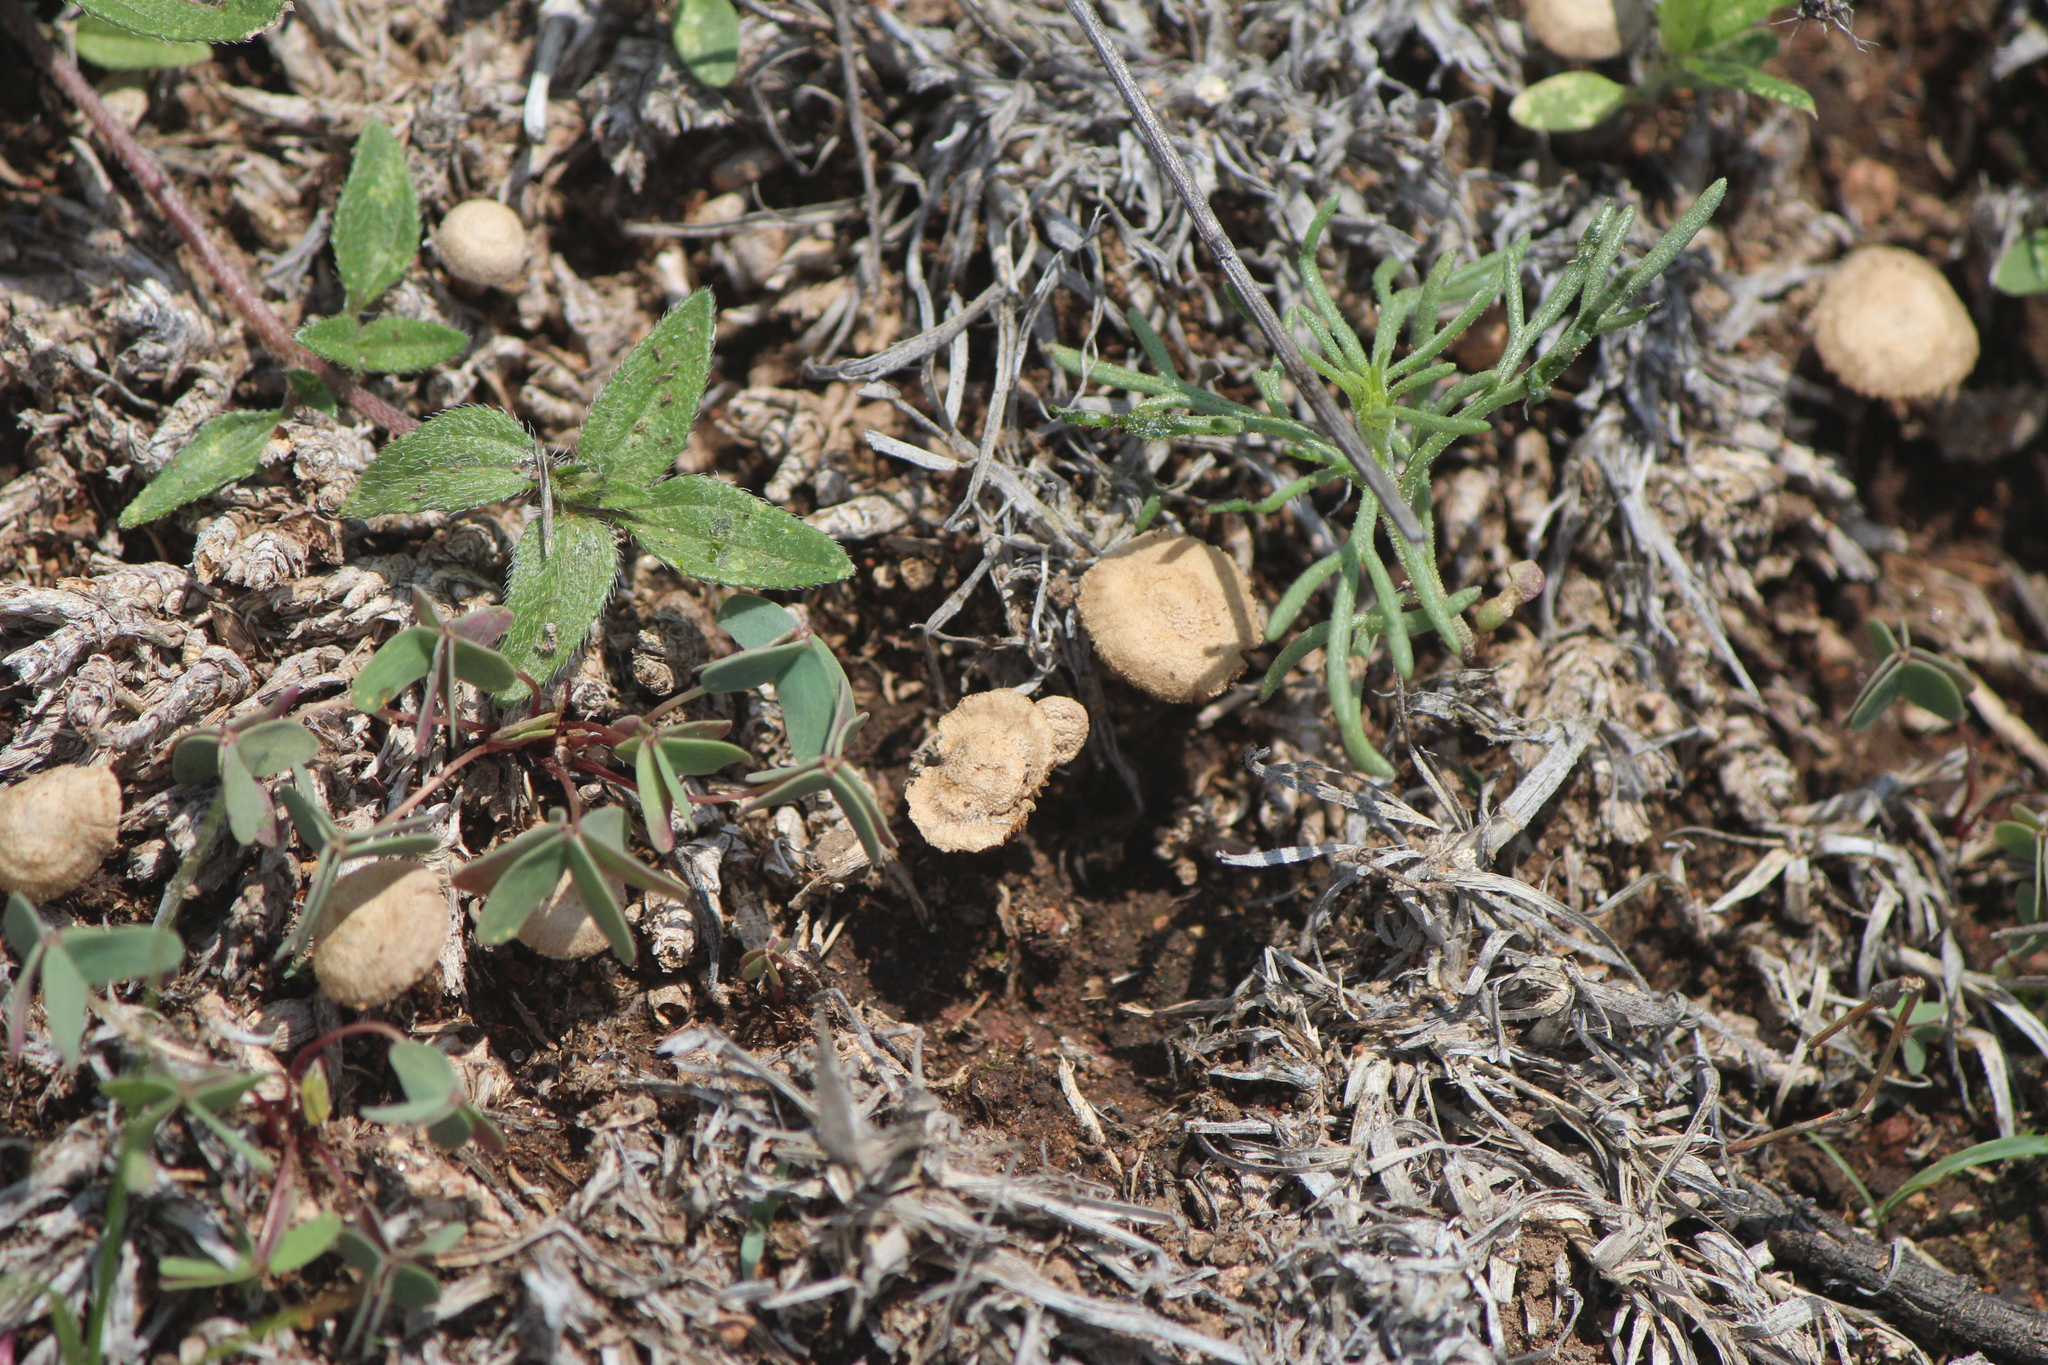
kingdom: Fungi
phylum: Basidiomycota
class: Agaricomycetes
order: Agaricales
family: Strophariaceae
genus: Agrocybe
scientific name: Agrocybe pediades
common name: Common fieldcap
